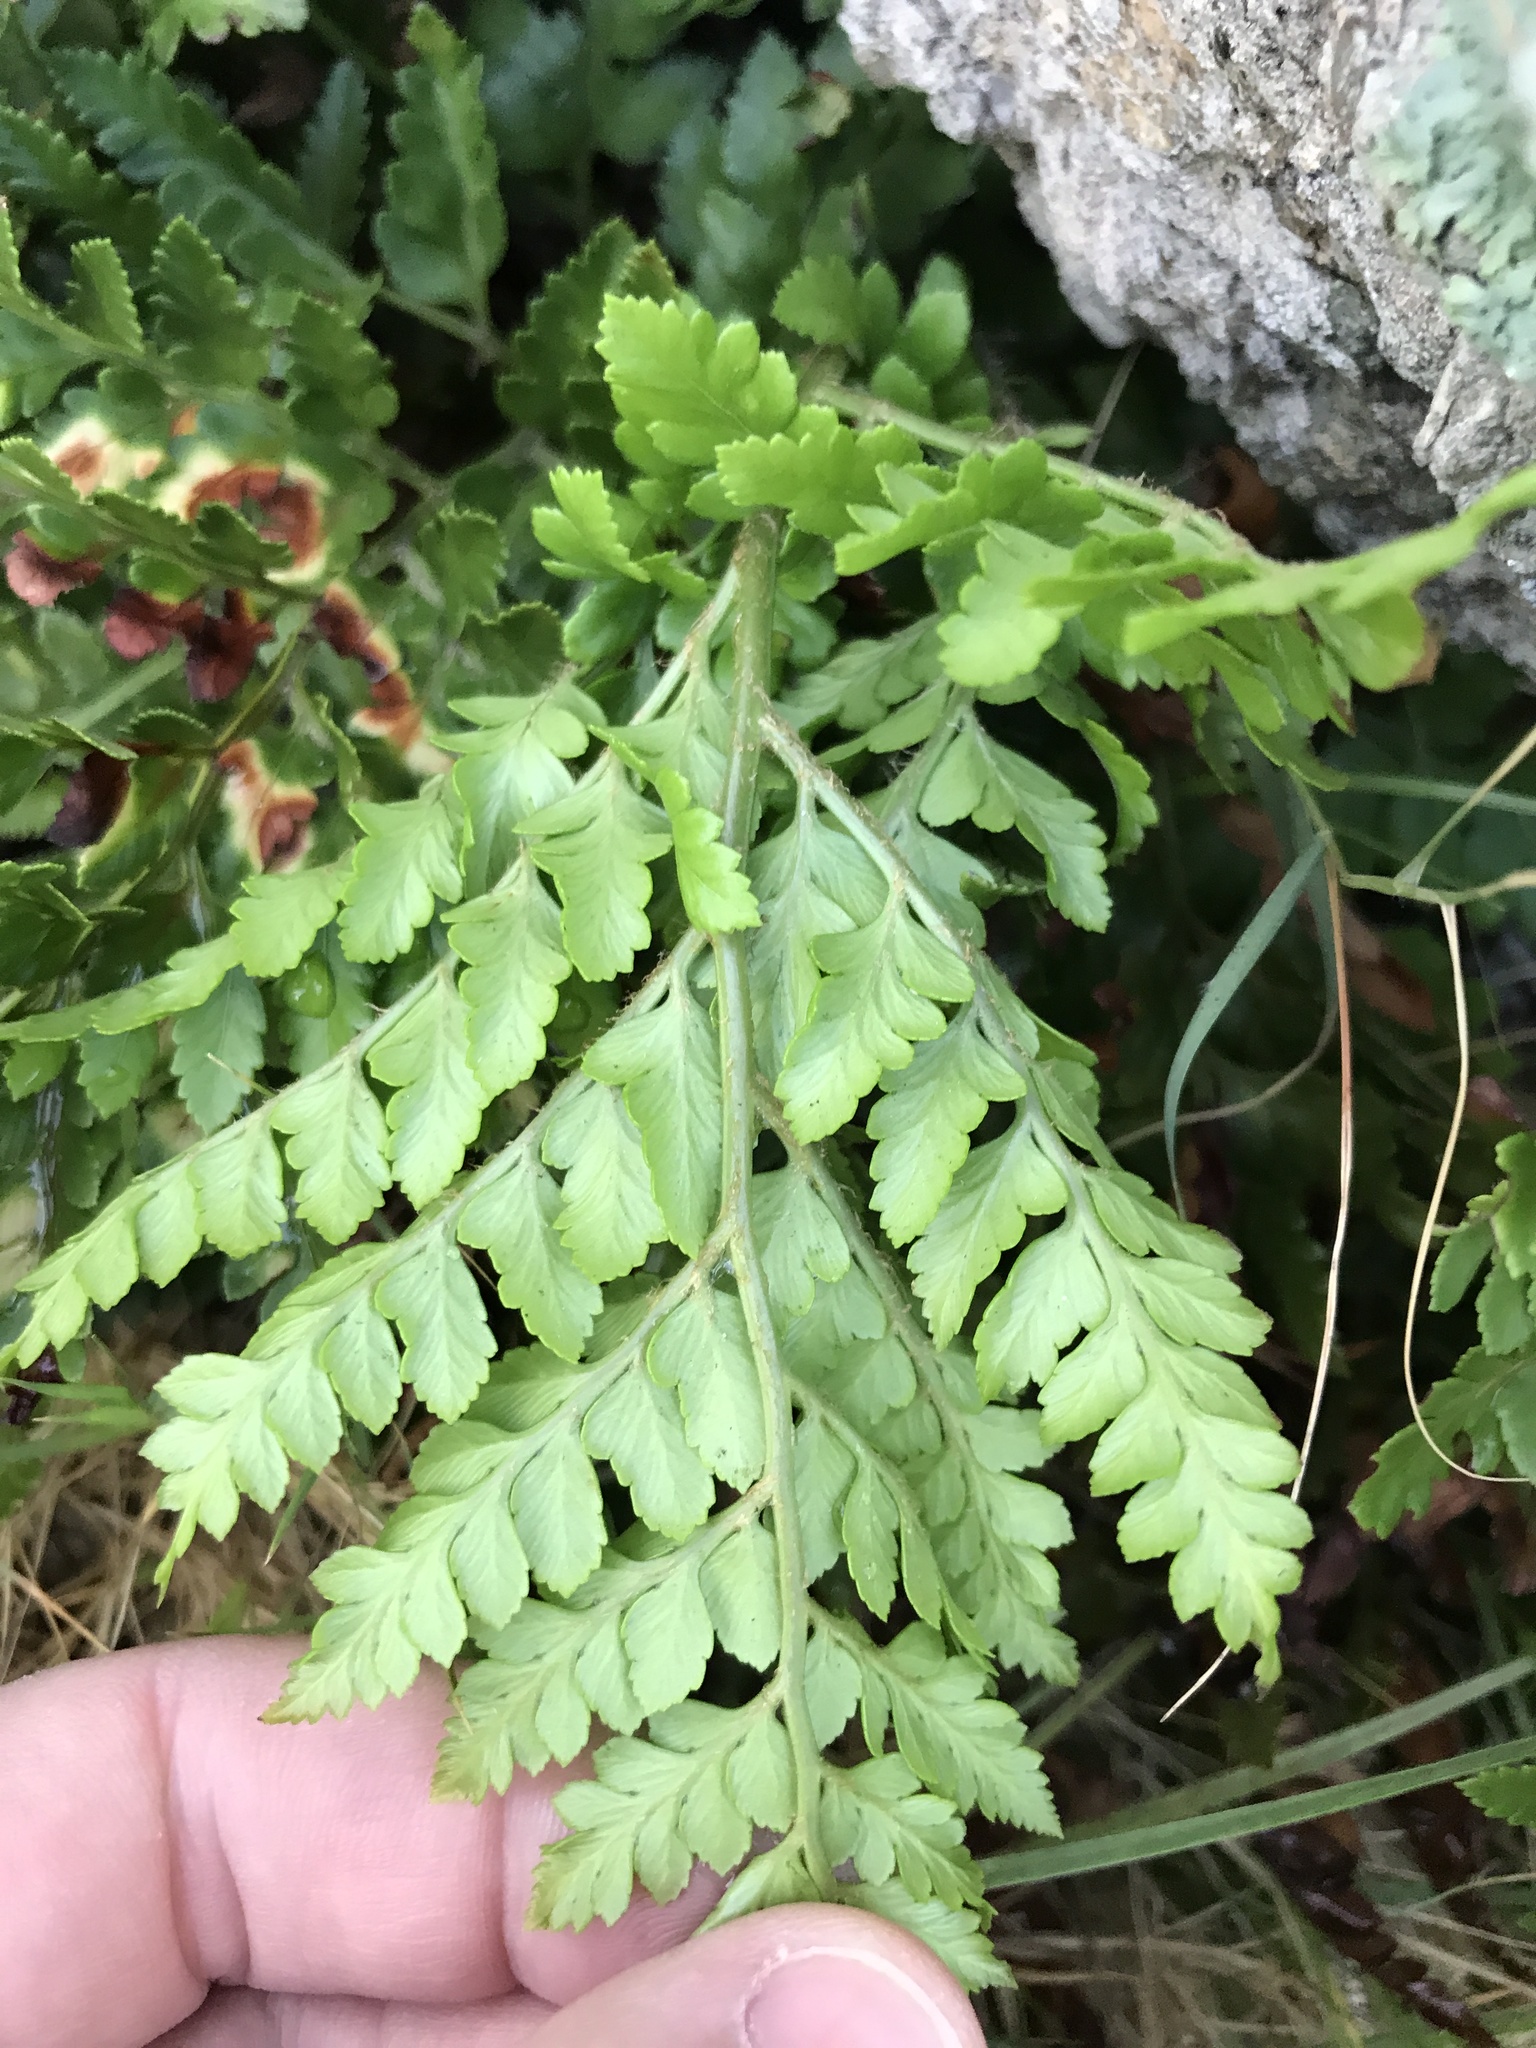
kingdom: Plantae
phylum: Tracheophyta
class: Polypodiopsida
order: Polypodiales
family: Dryopteridaceae
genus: Rumohra
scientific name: Rumohra adiantiformis
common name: Leather fern
